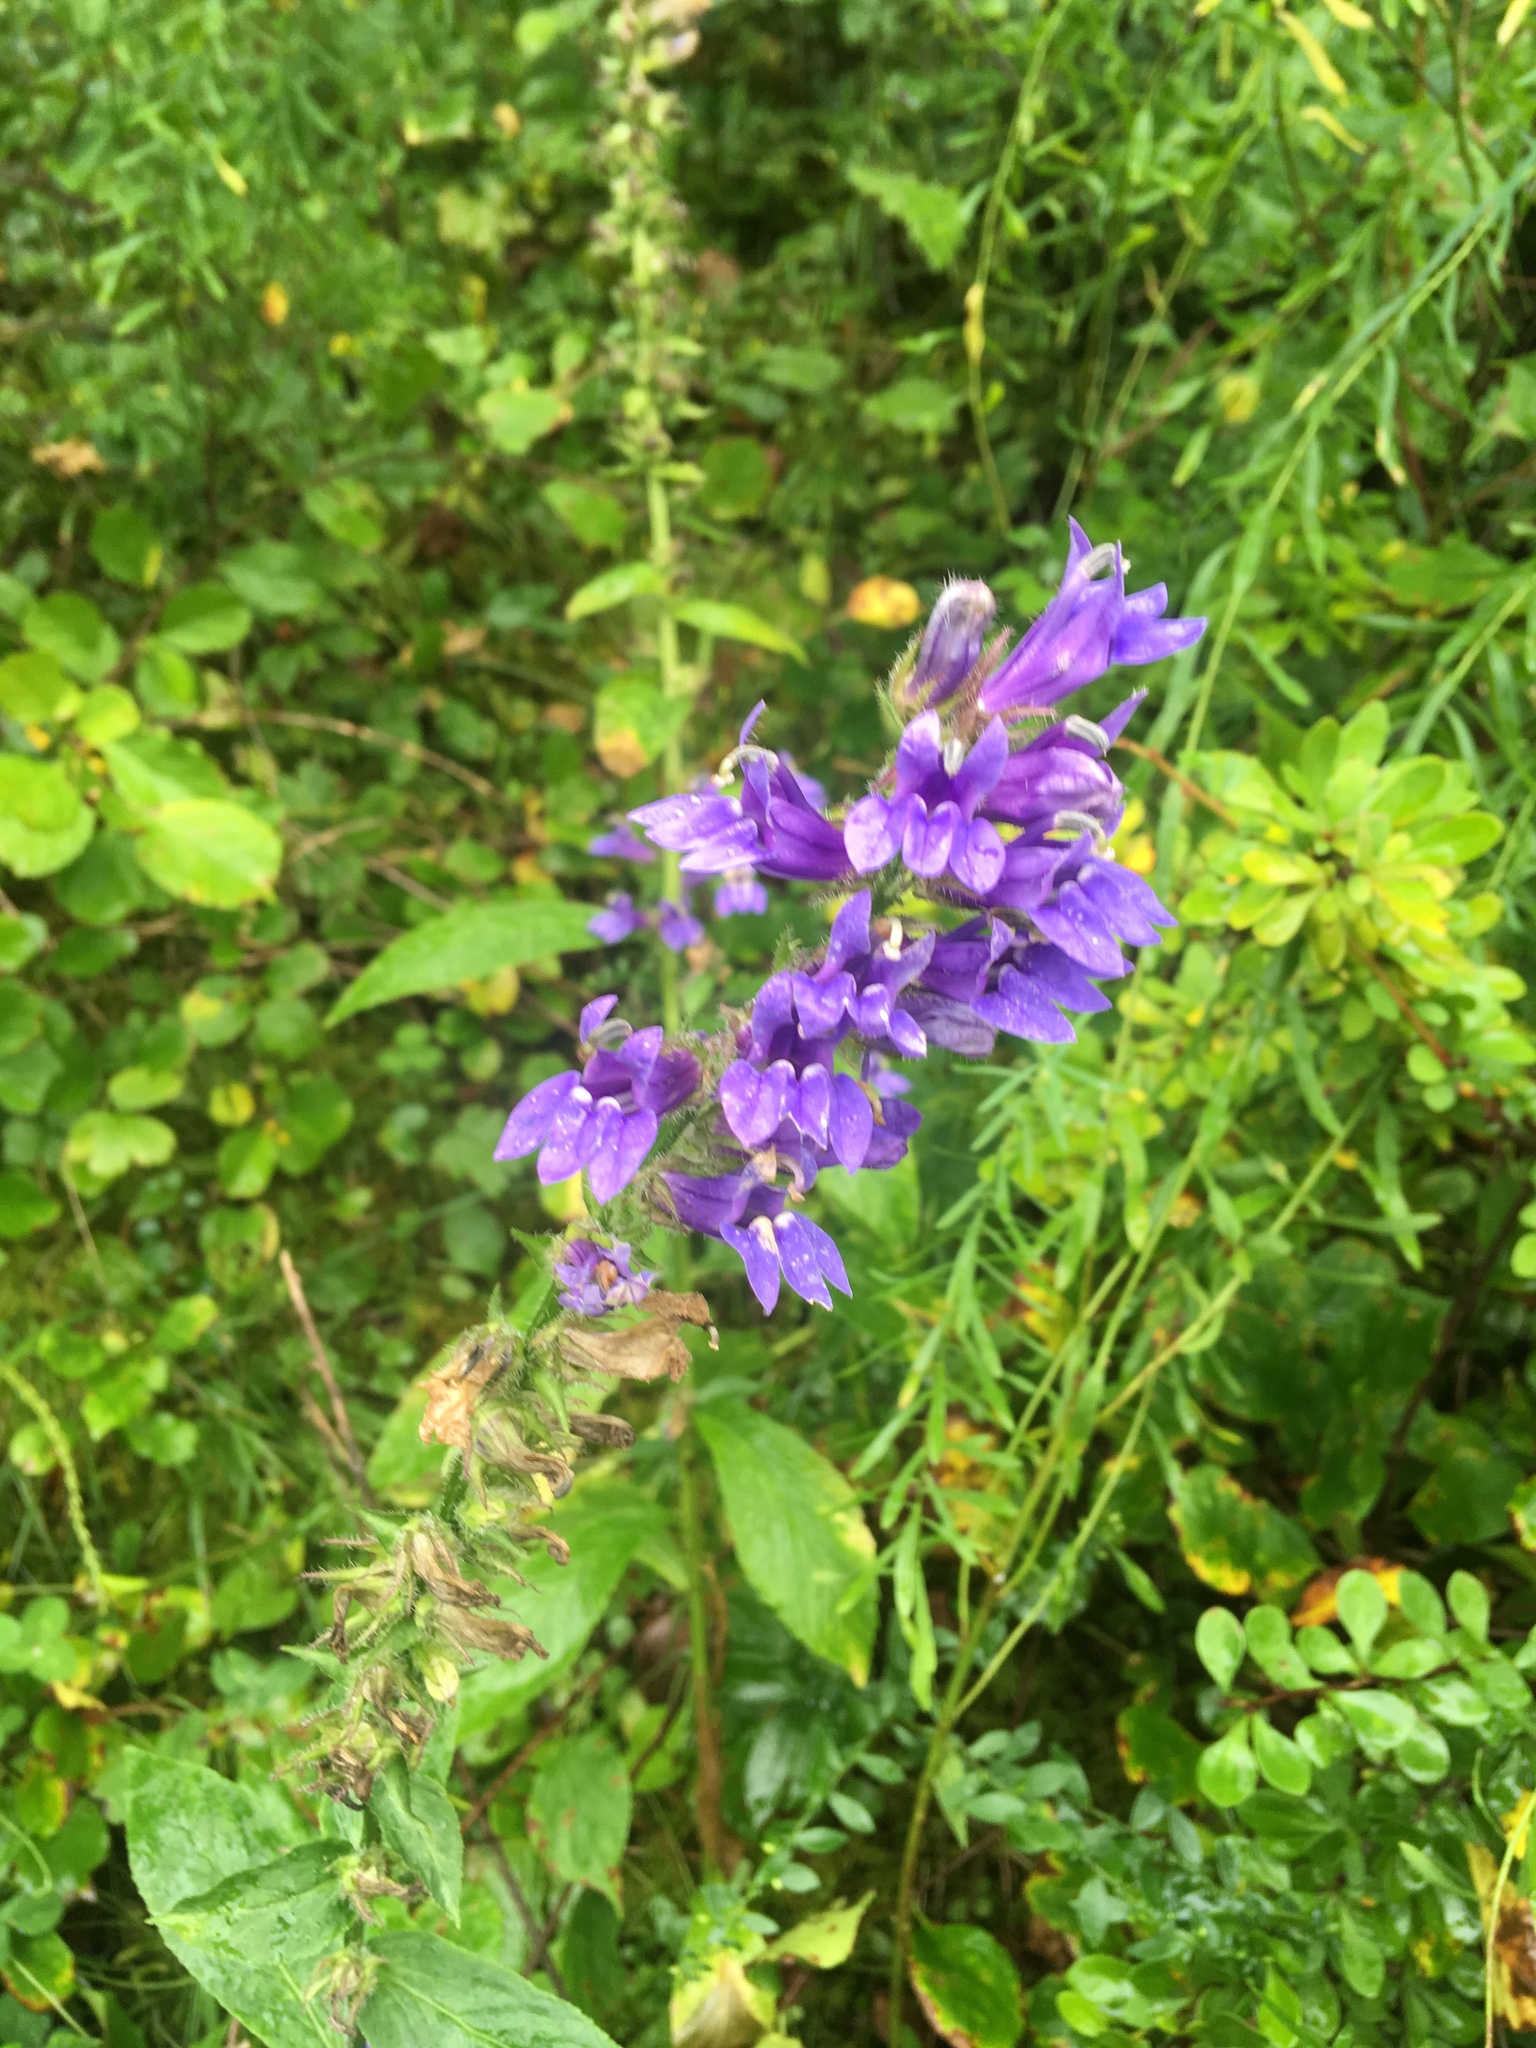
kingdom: Plantae
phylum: Tracheophyta
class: Magnoliopsida
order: Asterales
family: Campanulaceae
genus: Lobelia
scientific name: Lobelia siphilitica
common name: Great lobelia
